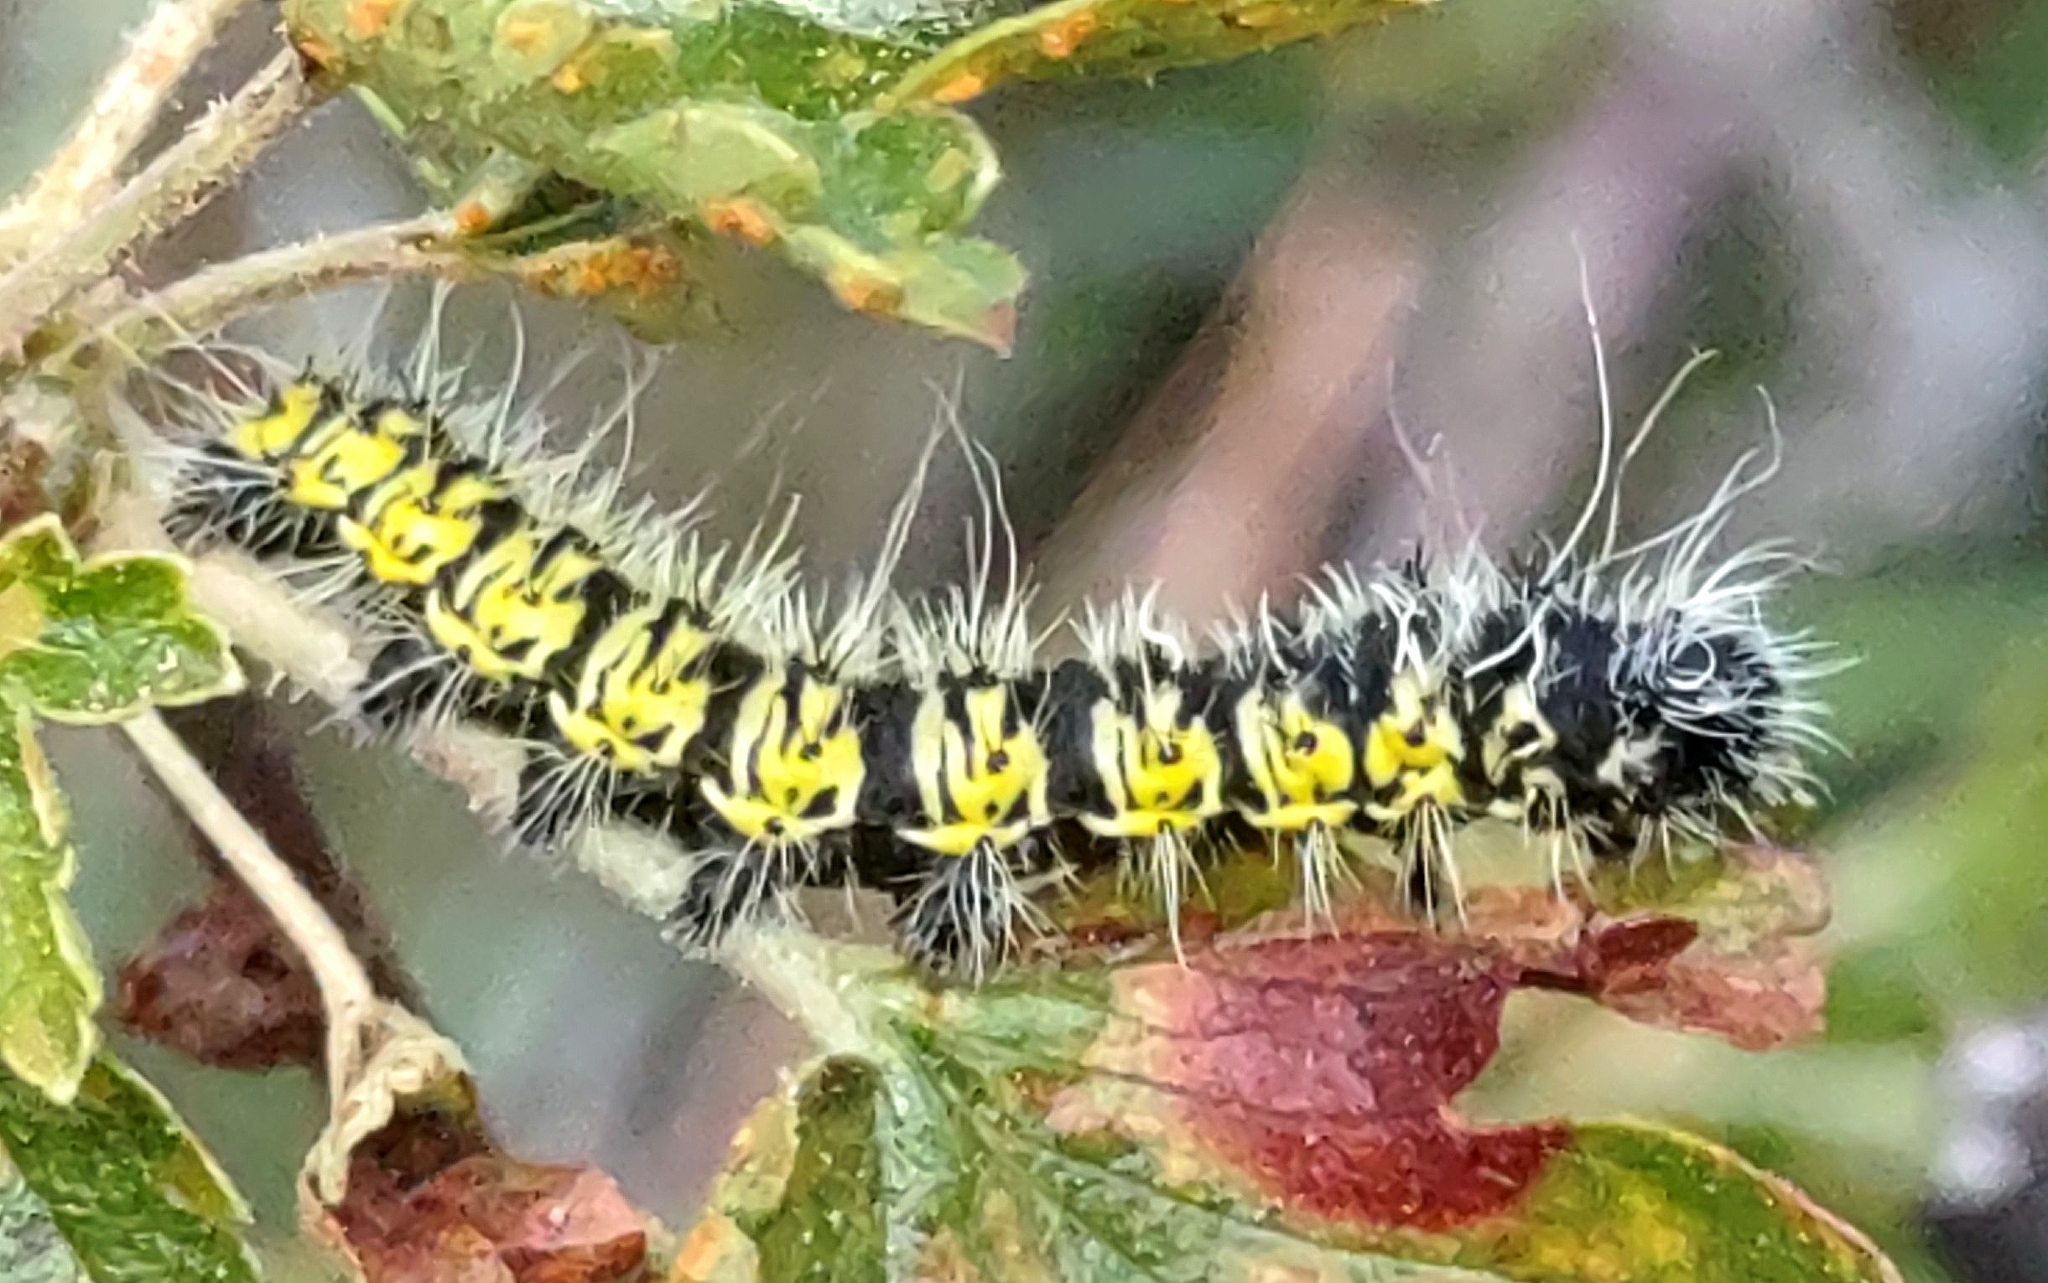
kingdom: Animalia
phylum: Arthropoda
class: Insecta
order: Lepidoptera
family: Saturniidae
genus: Agapema
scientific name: Agapema homogena
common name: Rocky mountain agapema
